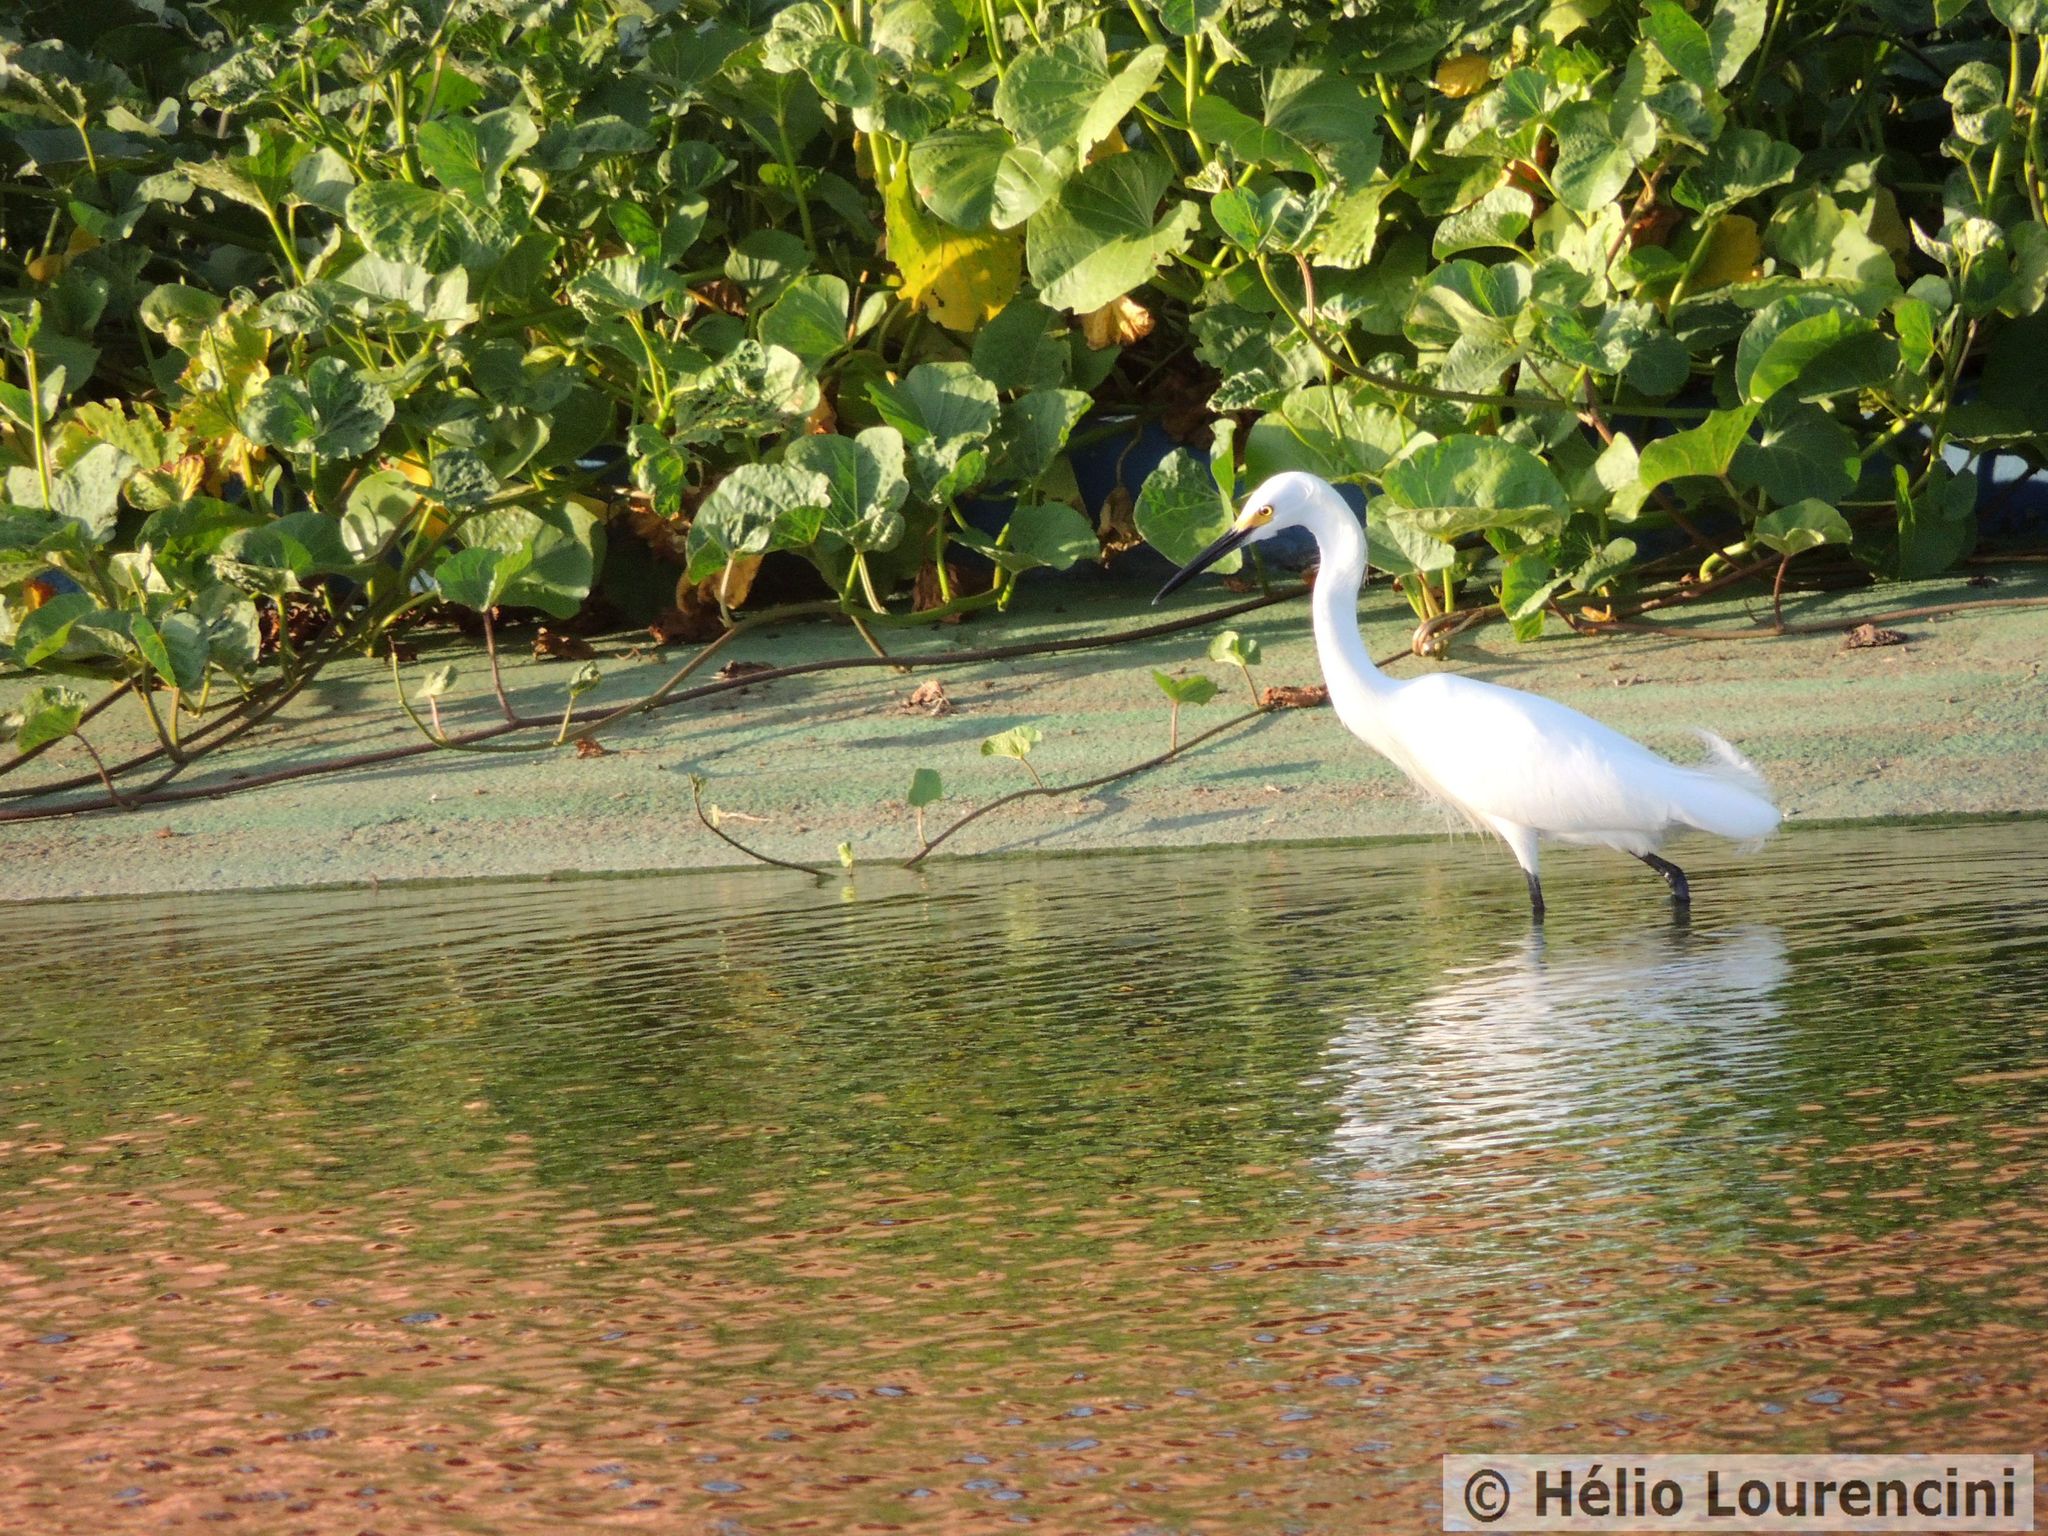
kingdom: Animalia
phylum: Chordata
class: Aves
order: Pelecaniformes
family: Ardeidae
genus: Egretta
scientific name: Egretta thula
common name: Snowy egret
